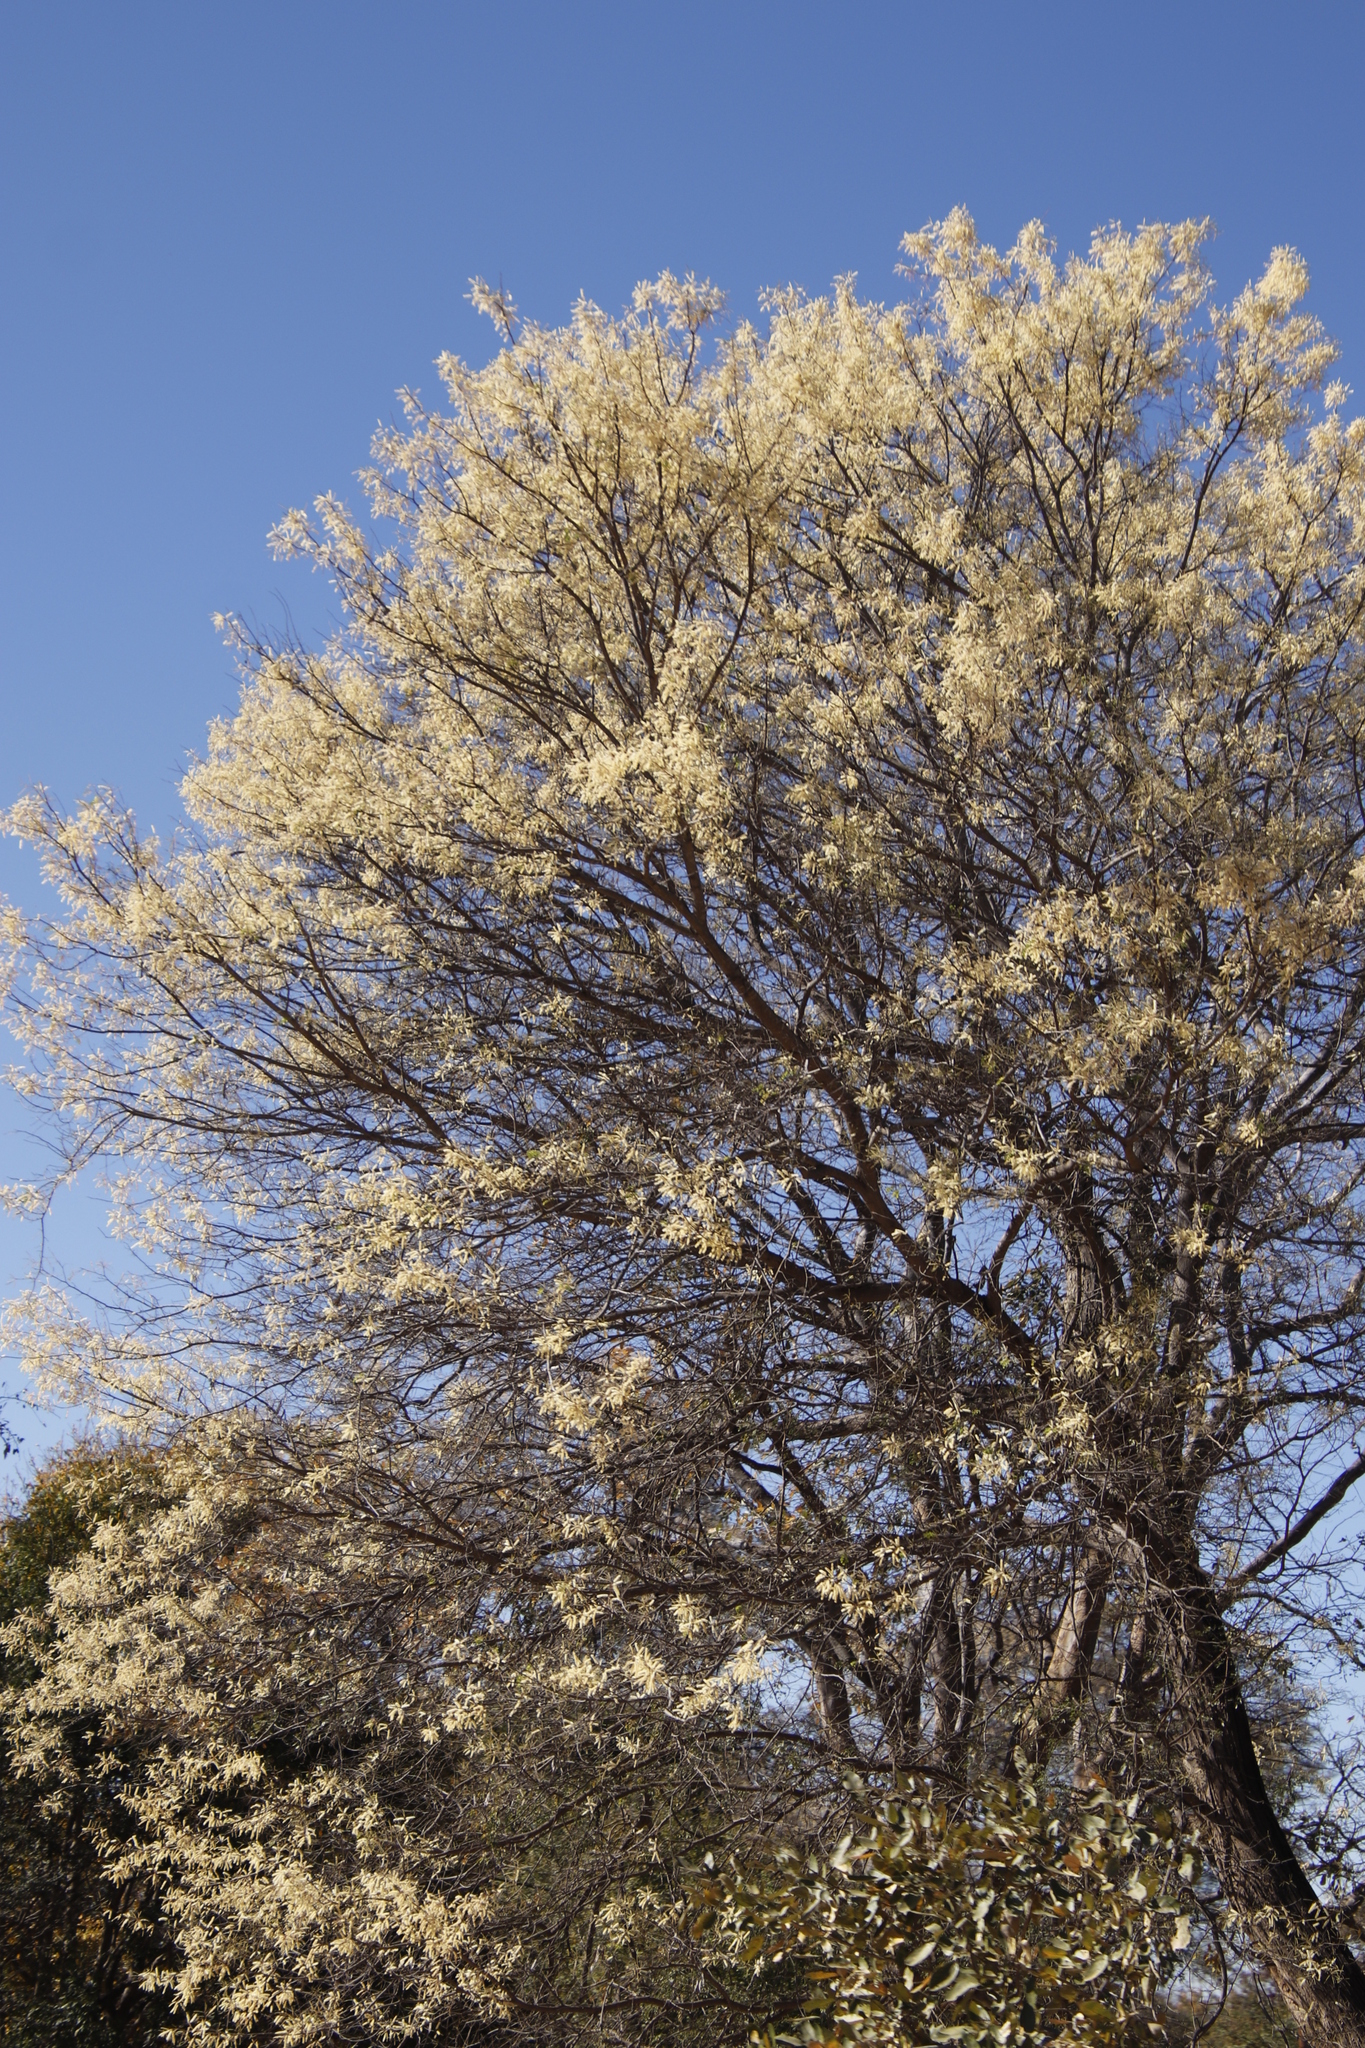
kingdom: Plantae
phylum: Tracheophyta
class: Magnoliopsida
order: Fabales
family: Fabaceae
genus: Senegalia
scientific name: Senegalia nigrescens
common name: Knobthorn
